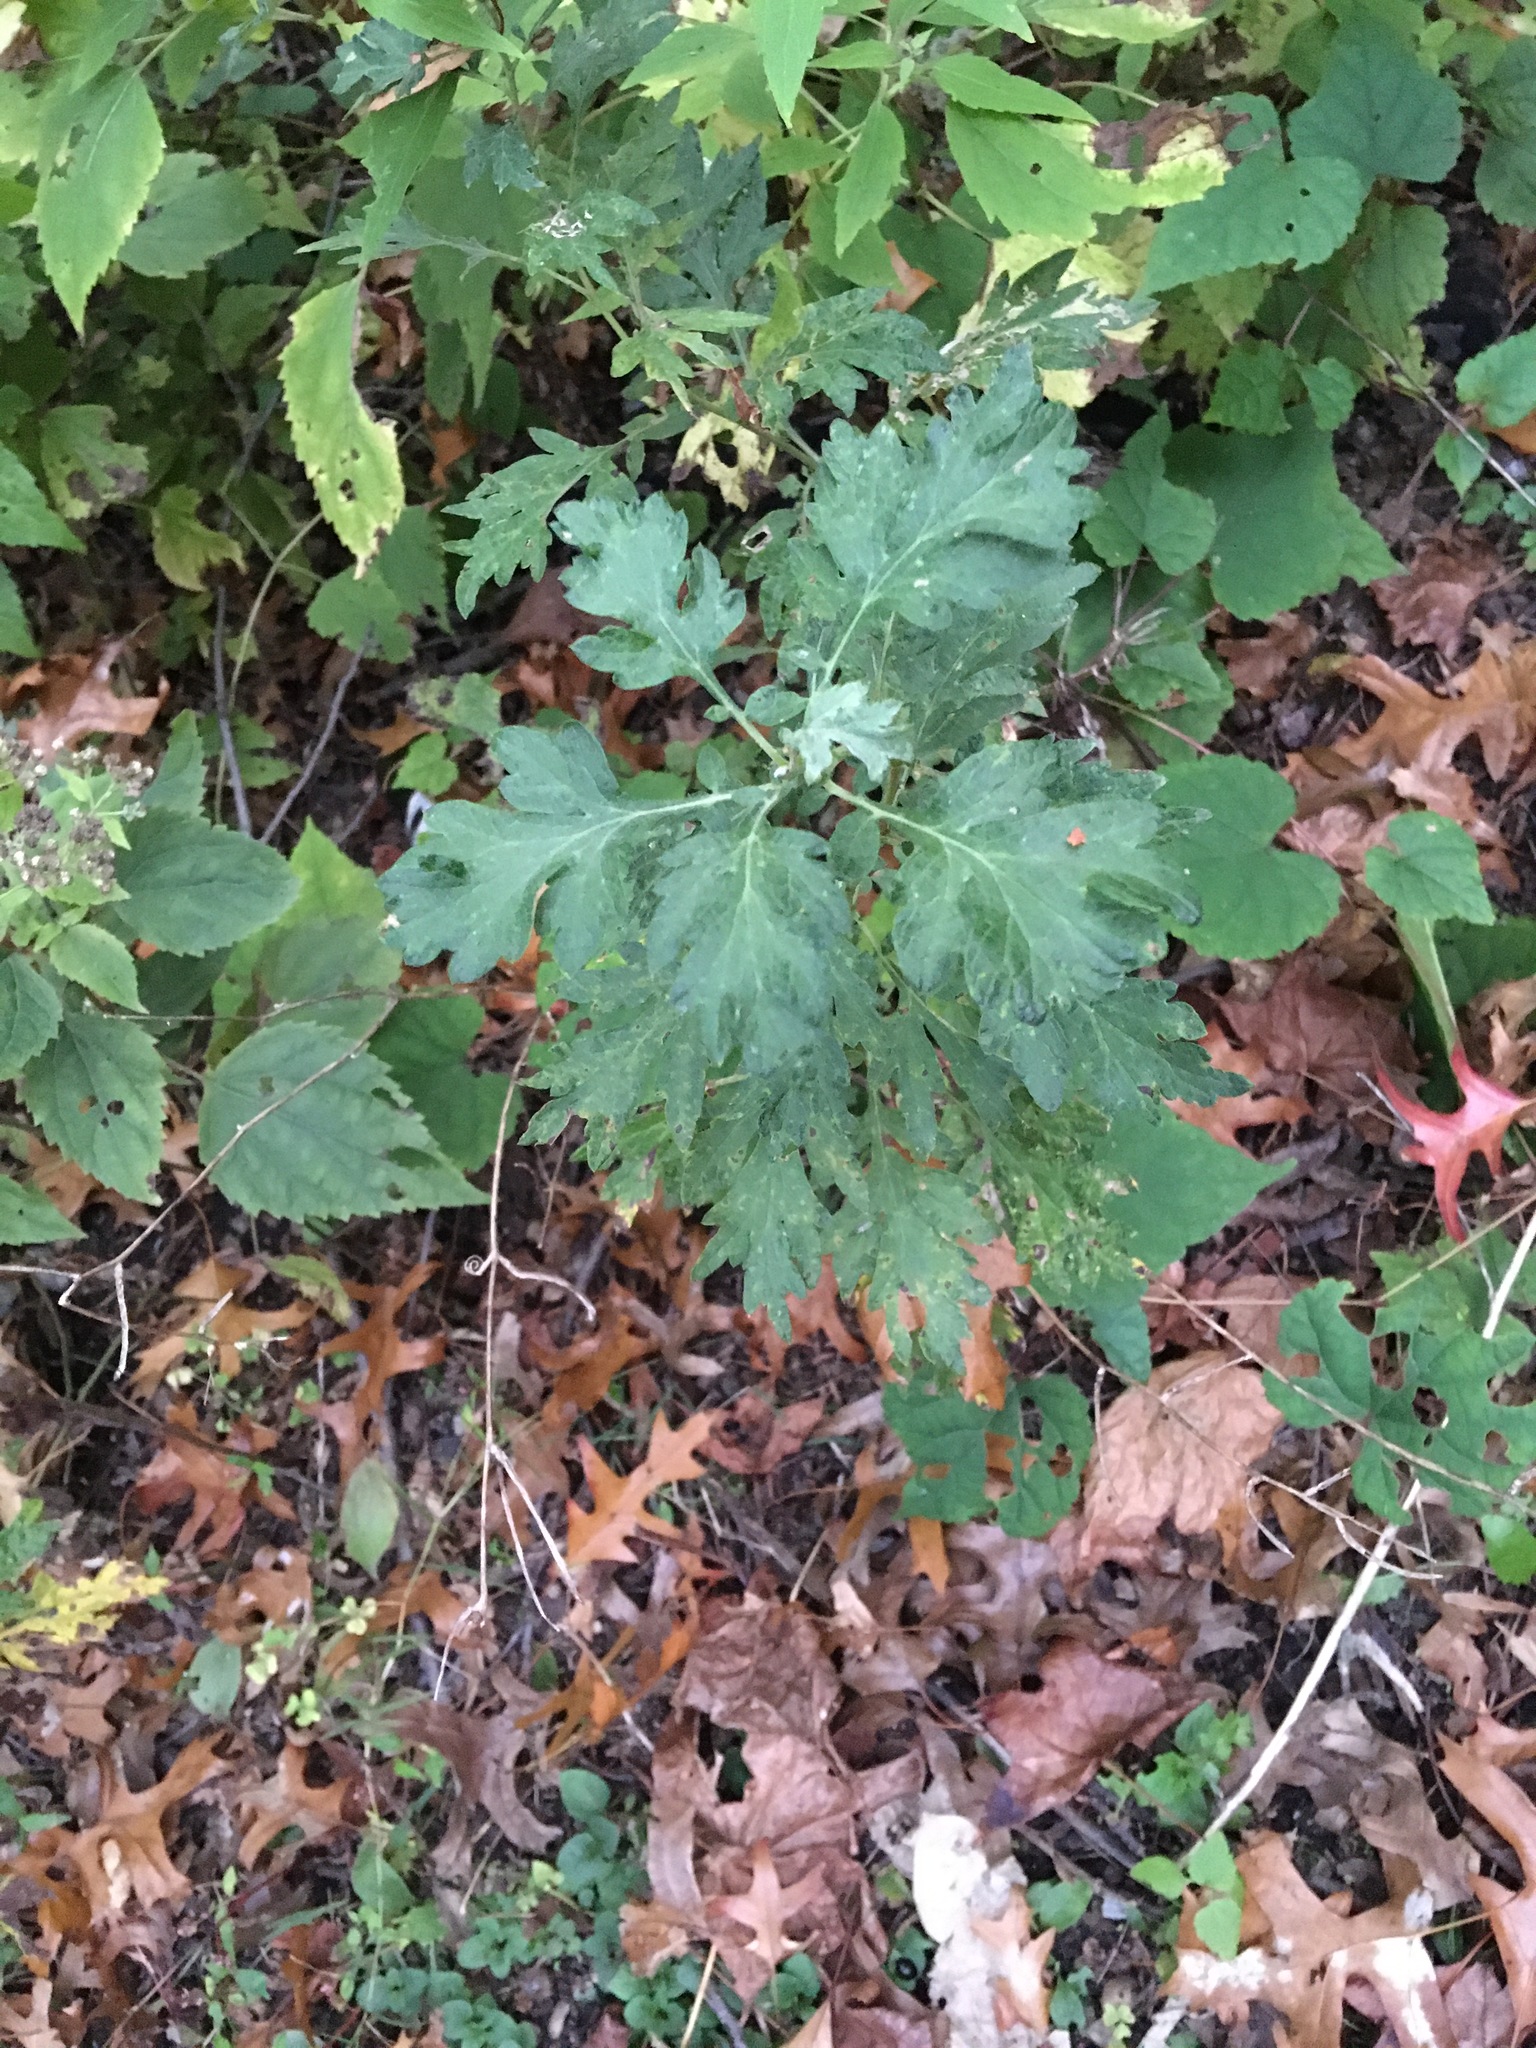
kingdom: Plantae
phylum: Tracheophyta
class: Magnoliopsida
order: Asterales
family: Asteraceae
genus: Artemisia
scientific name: Artemisia vulgaris
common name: Mugwort
